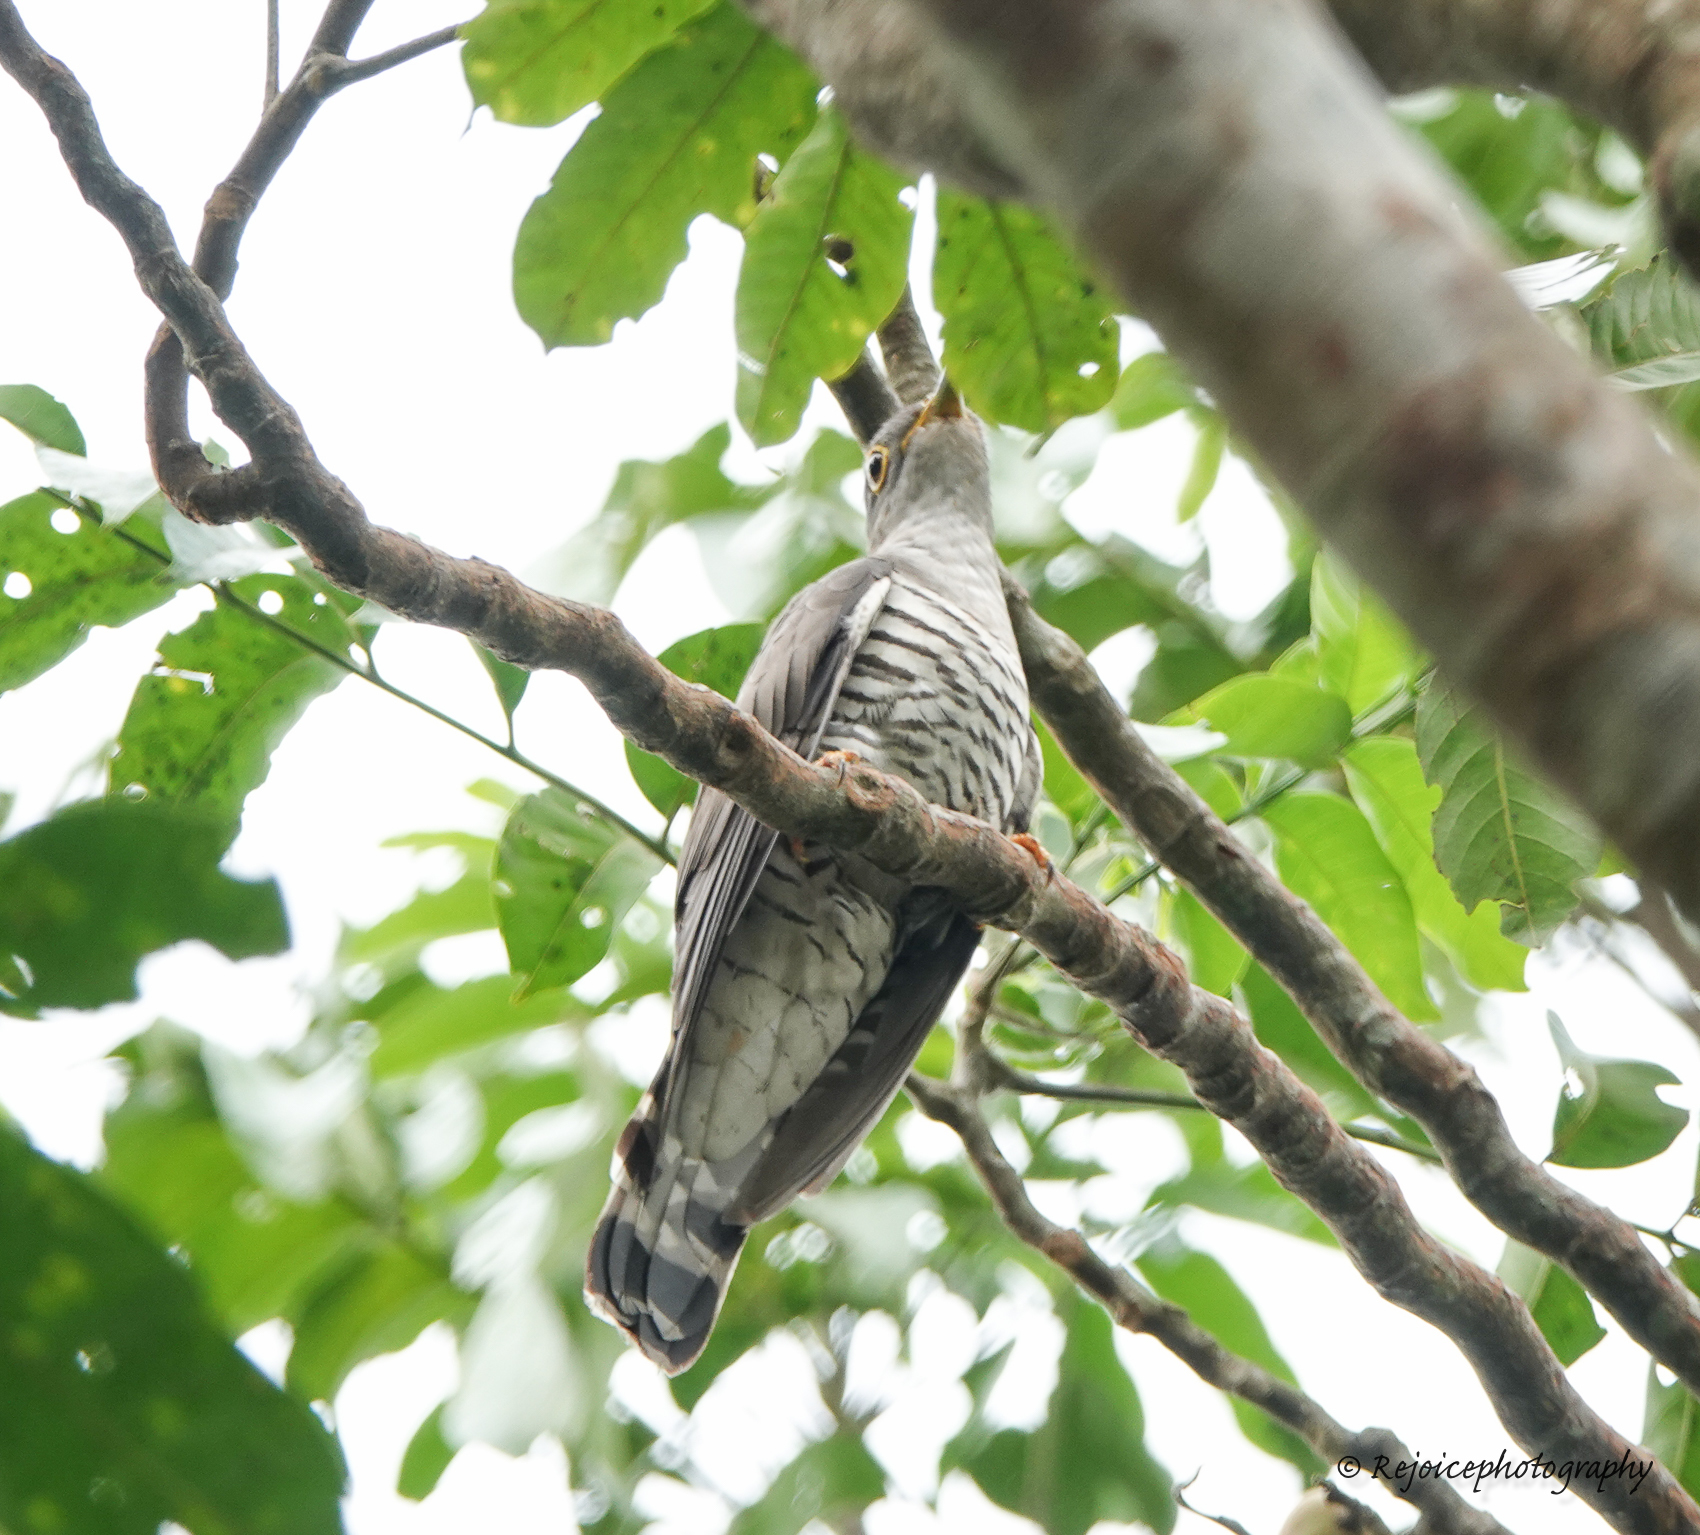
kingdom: Animalia
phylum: Chordata
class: Aves
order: Cuculiformes
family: Cuculidae
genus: Cuculus
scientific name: Cuculus micropterus
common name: Indian cuckoo
